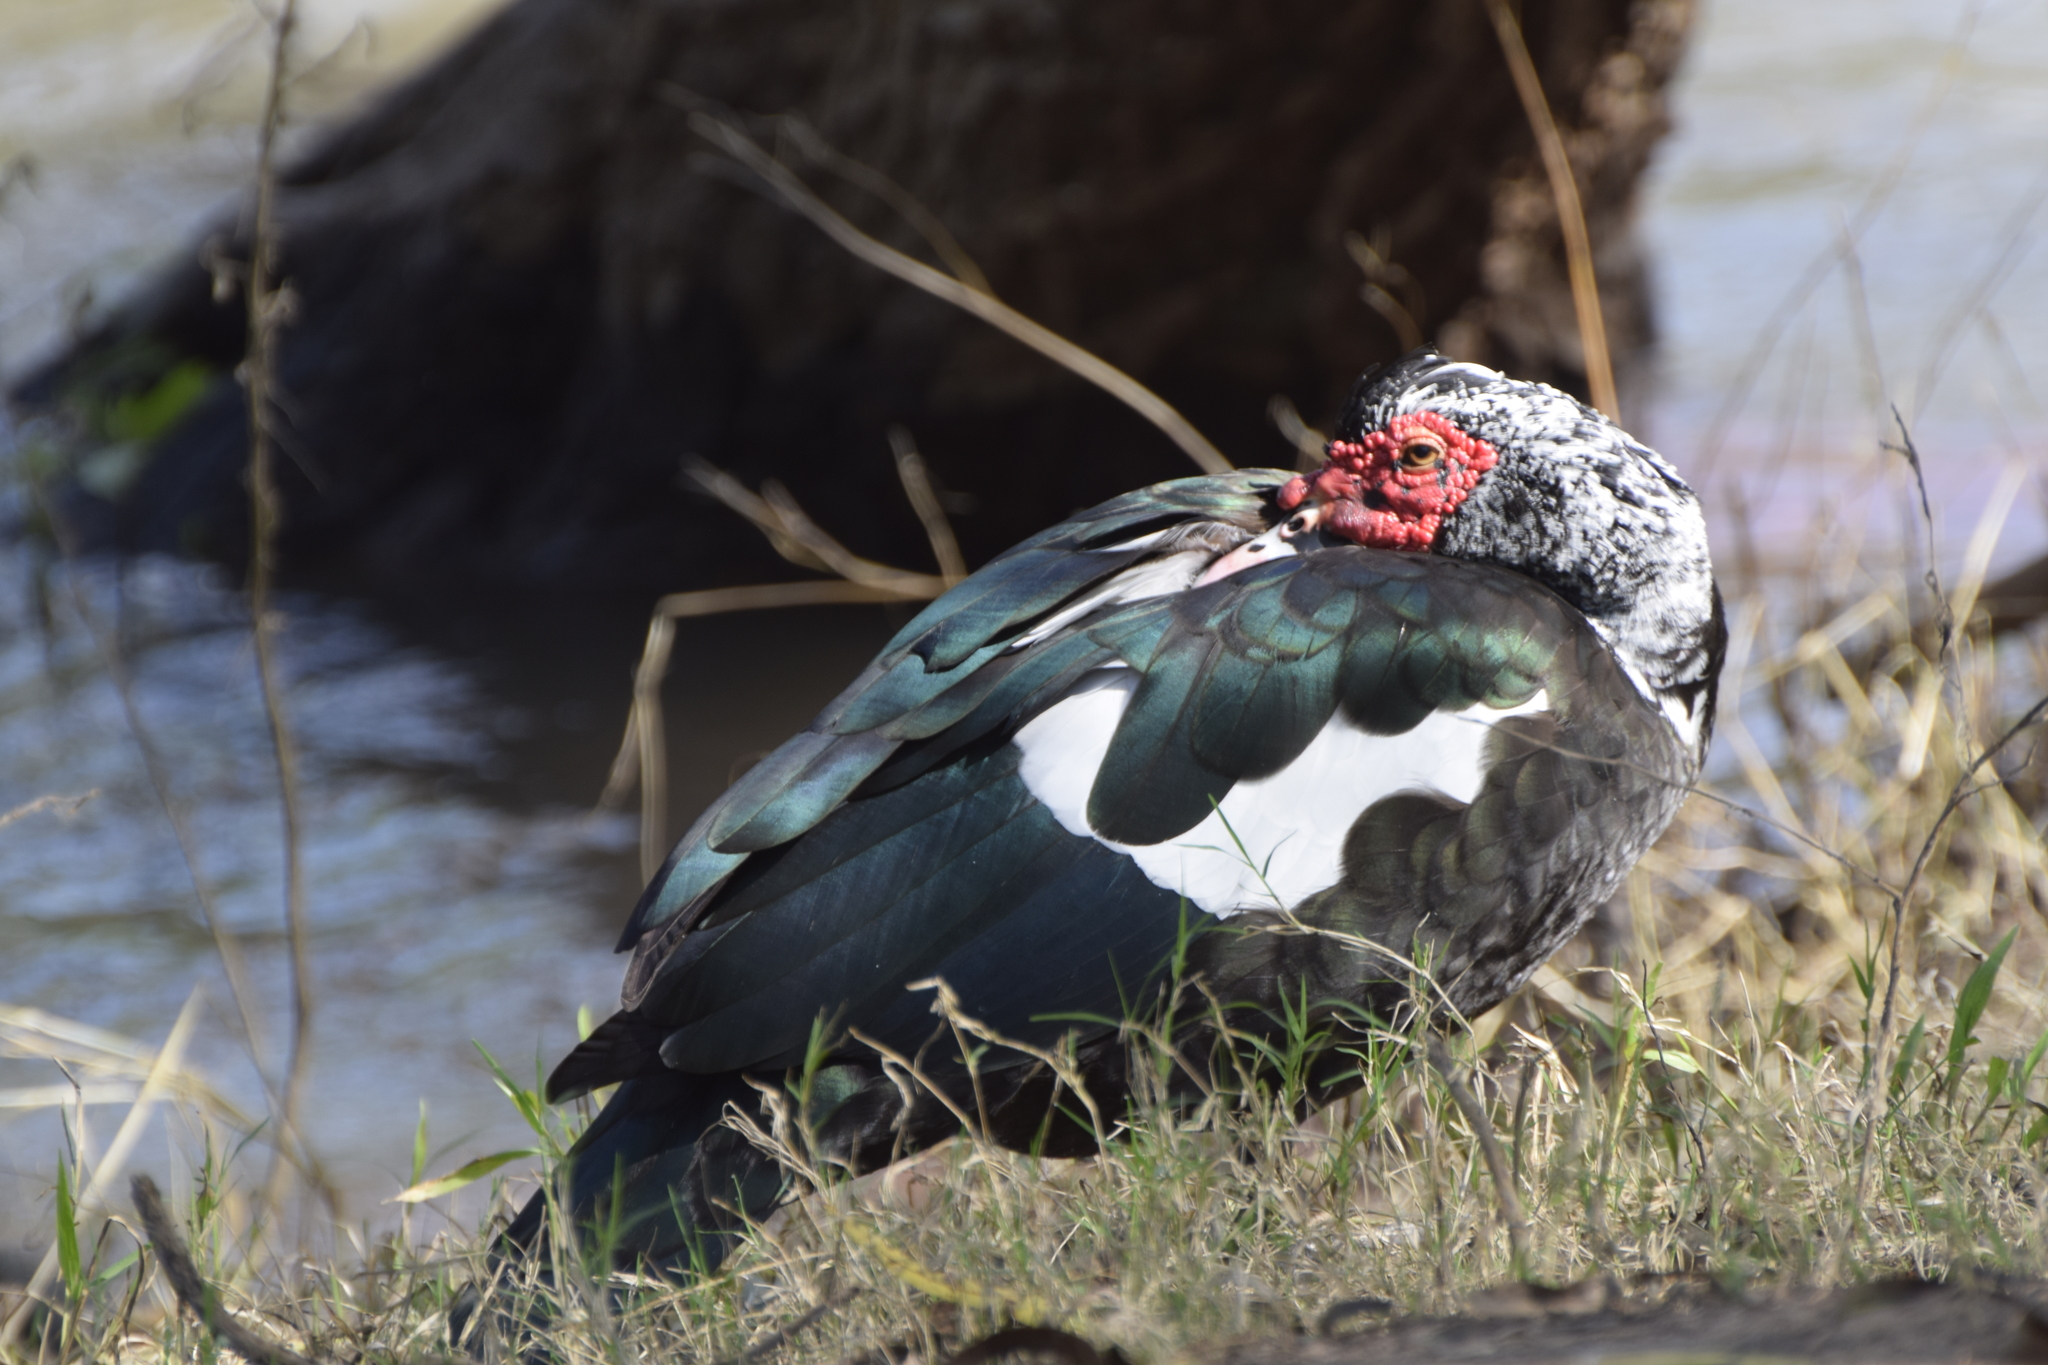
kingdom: Animalia
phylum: Chordata
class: Aves
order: Anseriformes
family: Anatidae
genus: Cairina
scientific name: Cairina moschata
